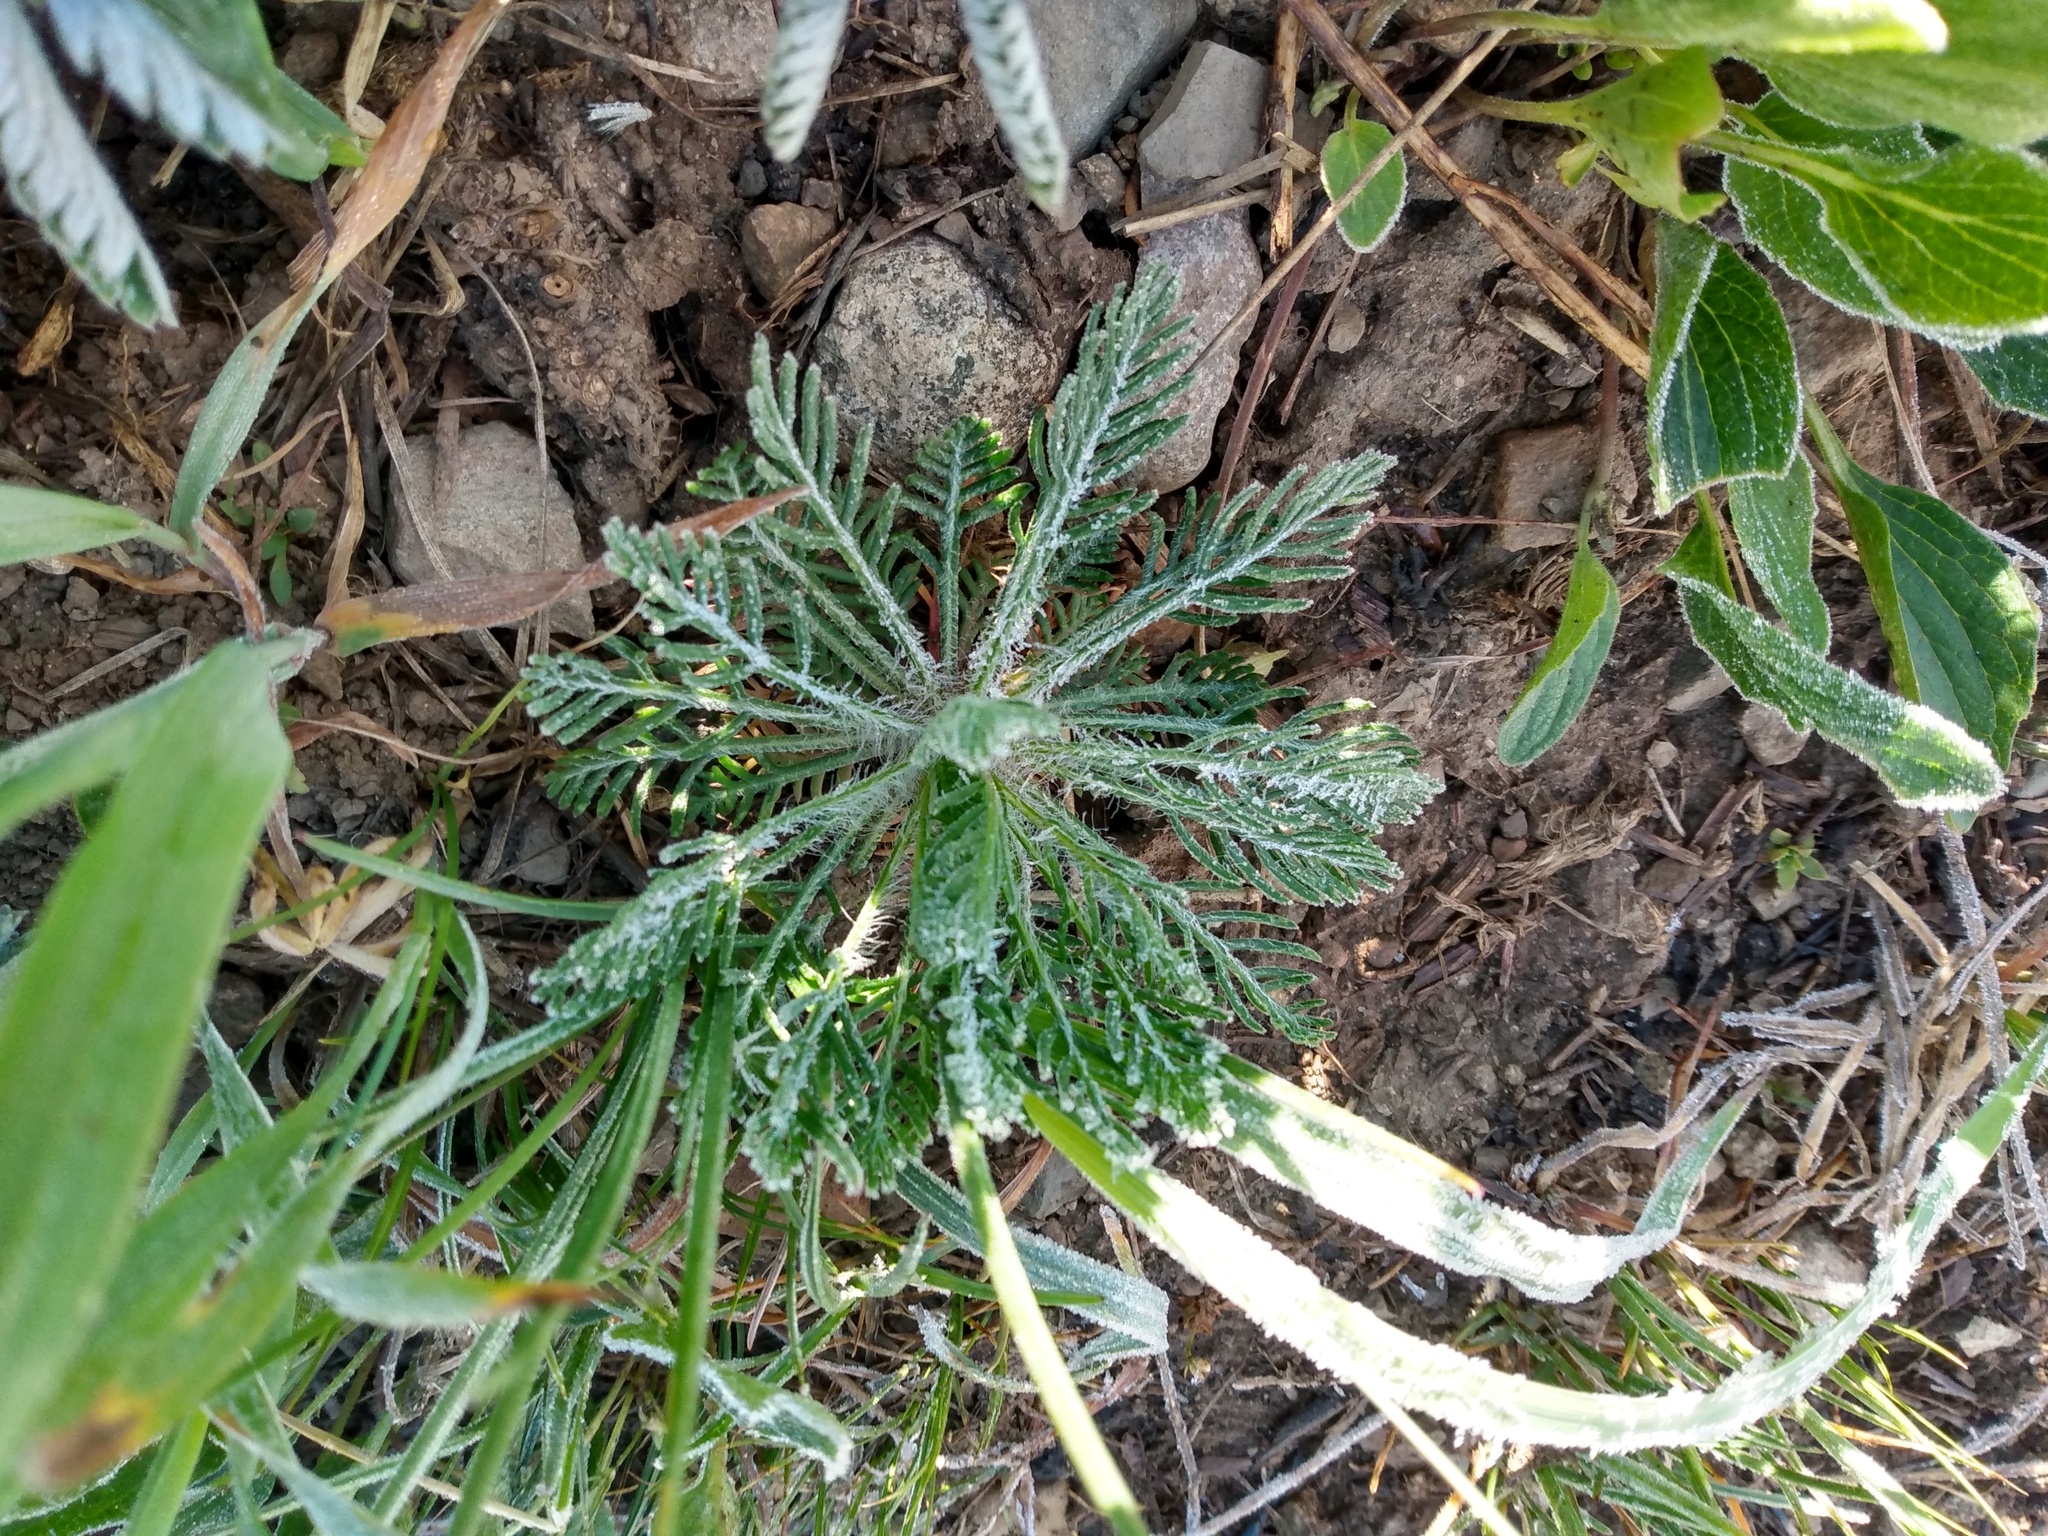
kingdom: Plantae
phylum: Tracheophyta
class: Magnoliopsida
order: Ericales
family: Polemoniaceae
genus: Ipomopsis
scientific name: Ipomopsis aggregata
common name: Scarlet gilia
